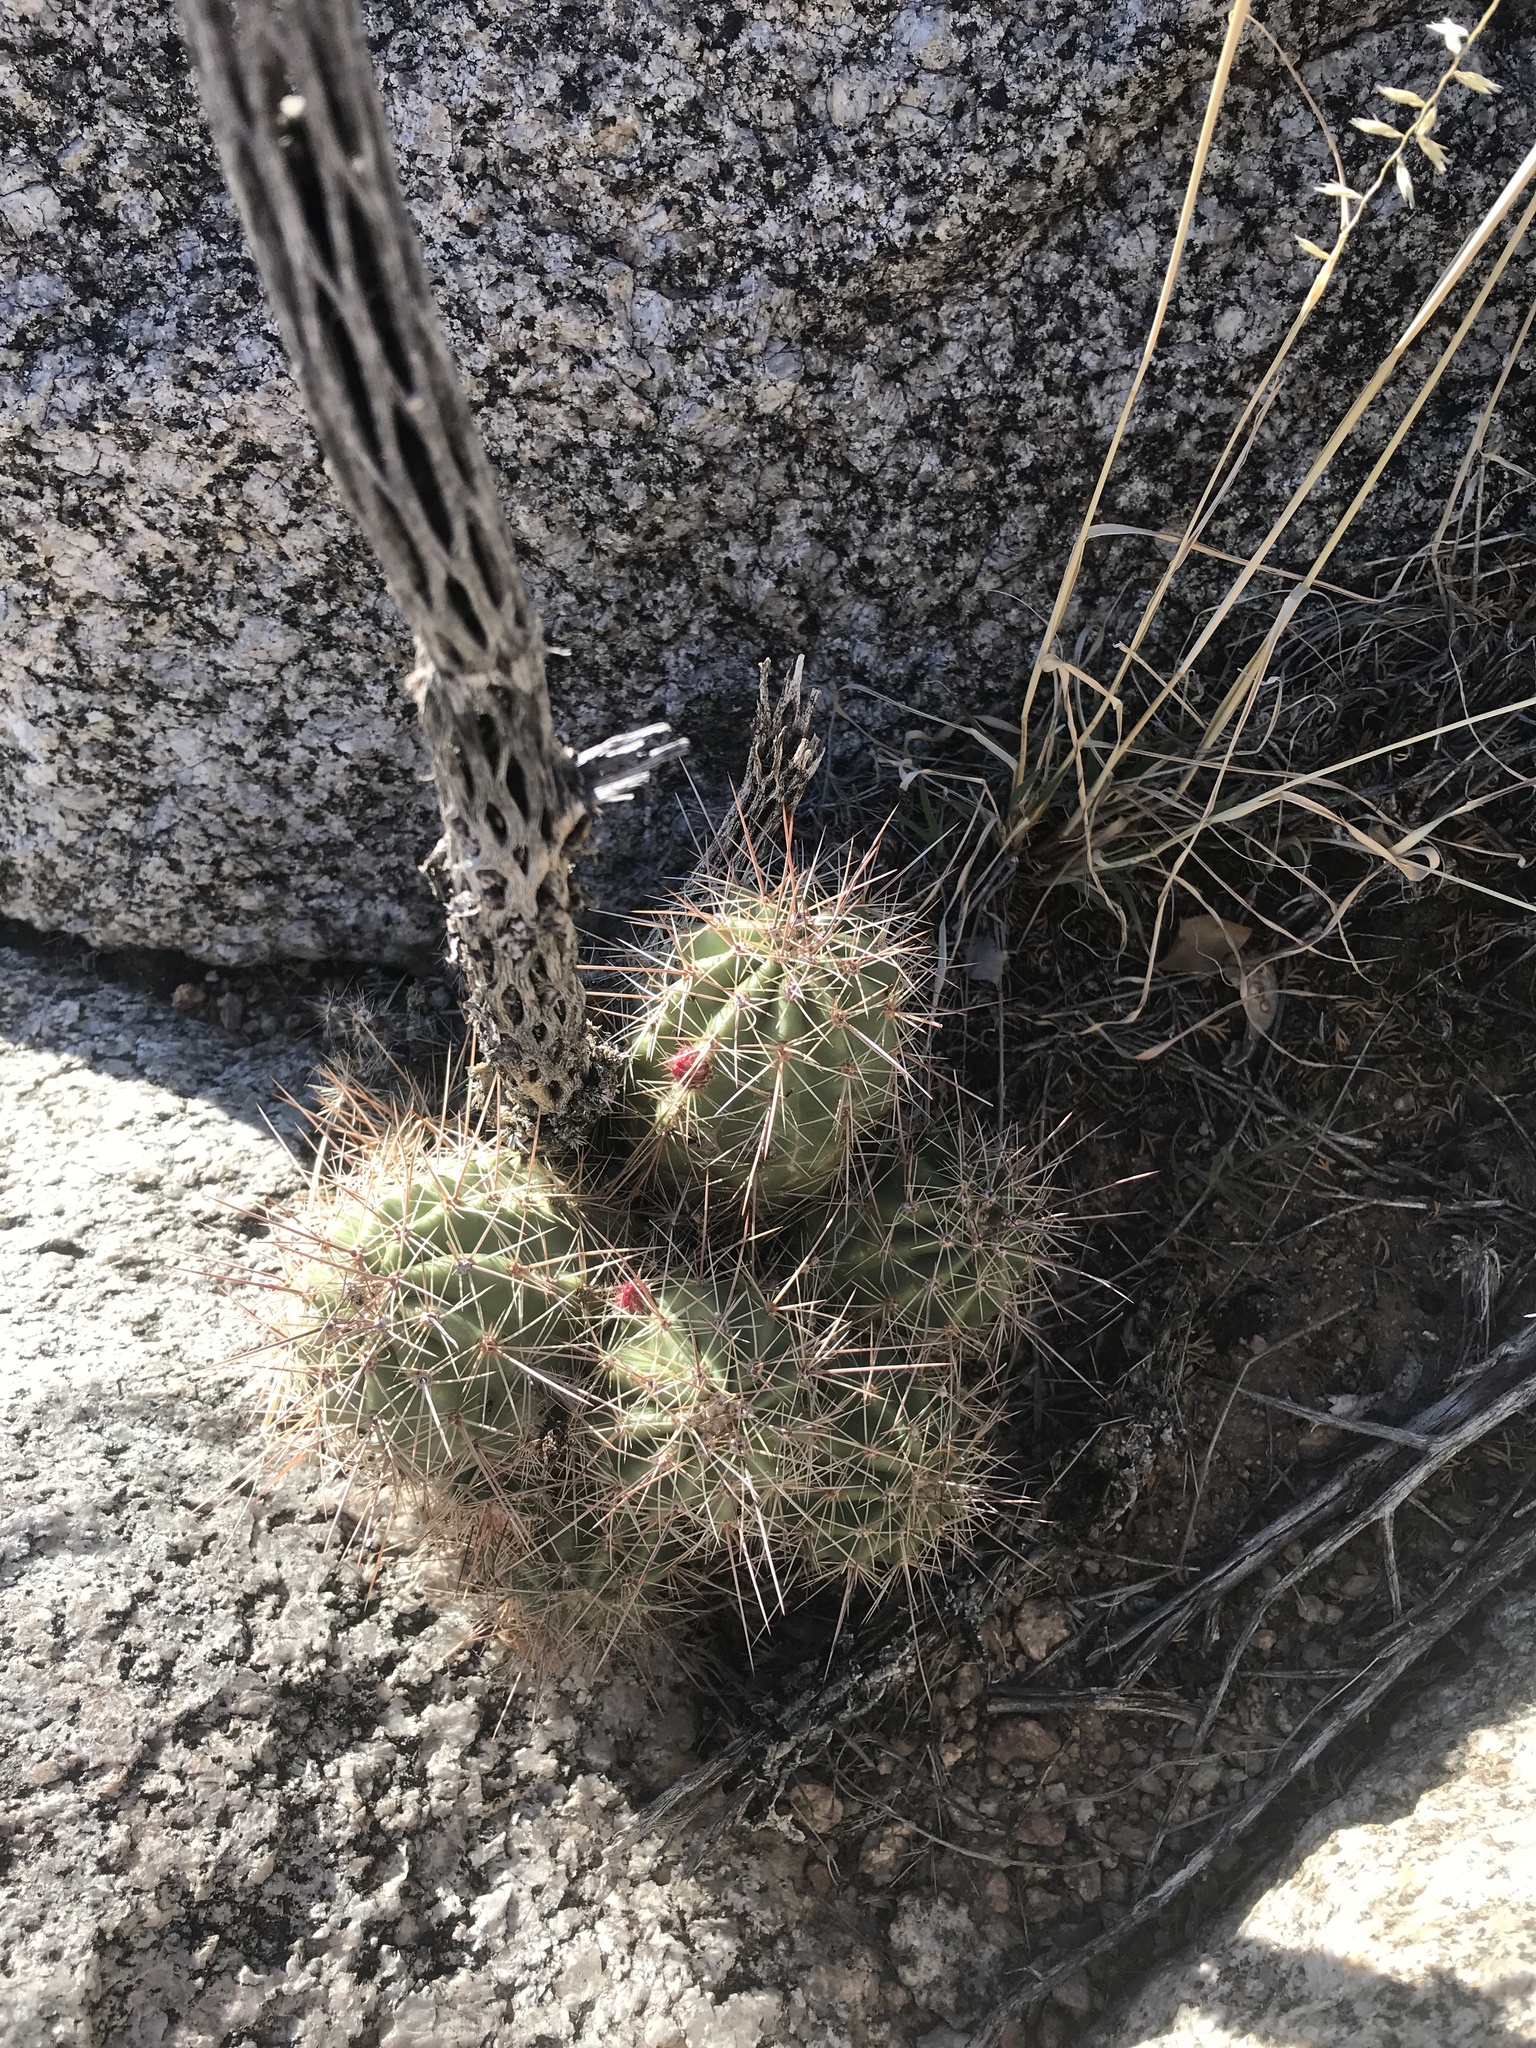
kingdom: Plantae
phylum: Tracheophyta
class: Magnoliopsida
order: Caryophyllales
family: Cactaceae
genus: Echinocereus
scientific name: Echinocereus coccineus
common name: Scarlet hedgehog cactus
